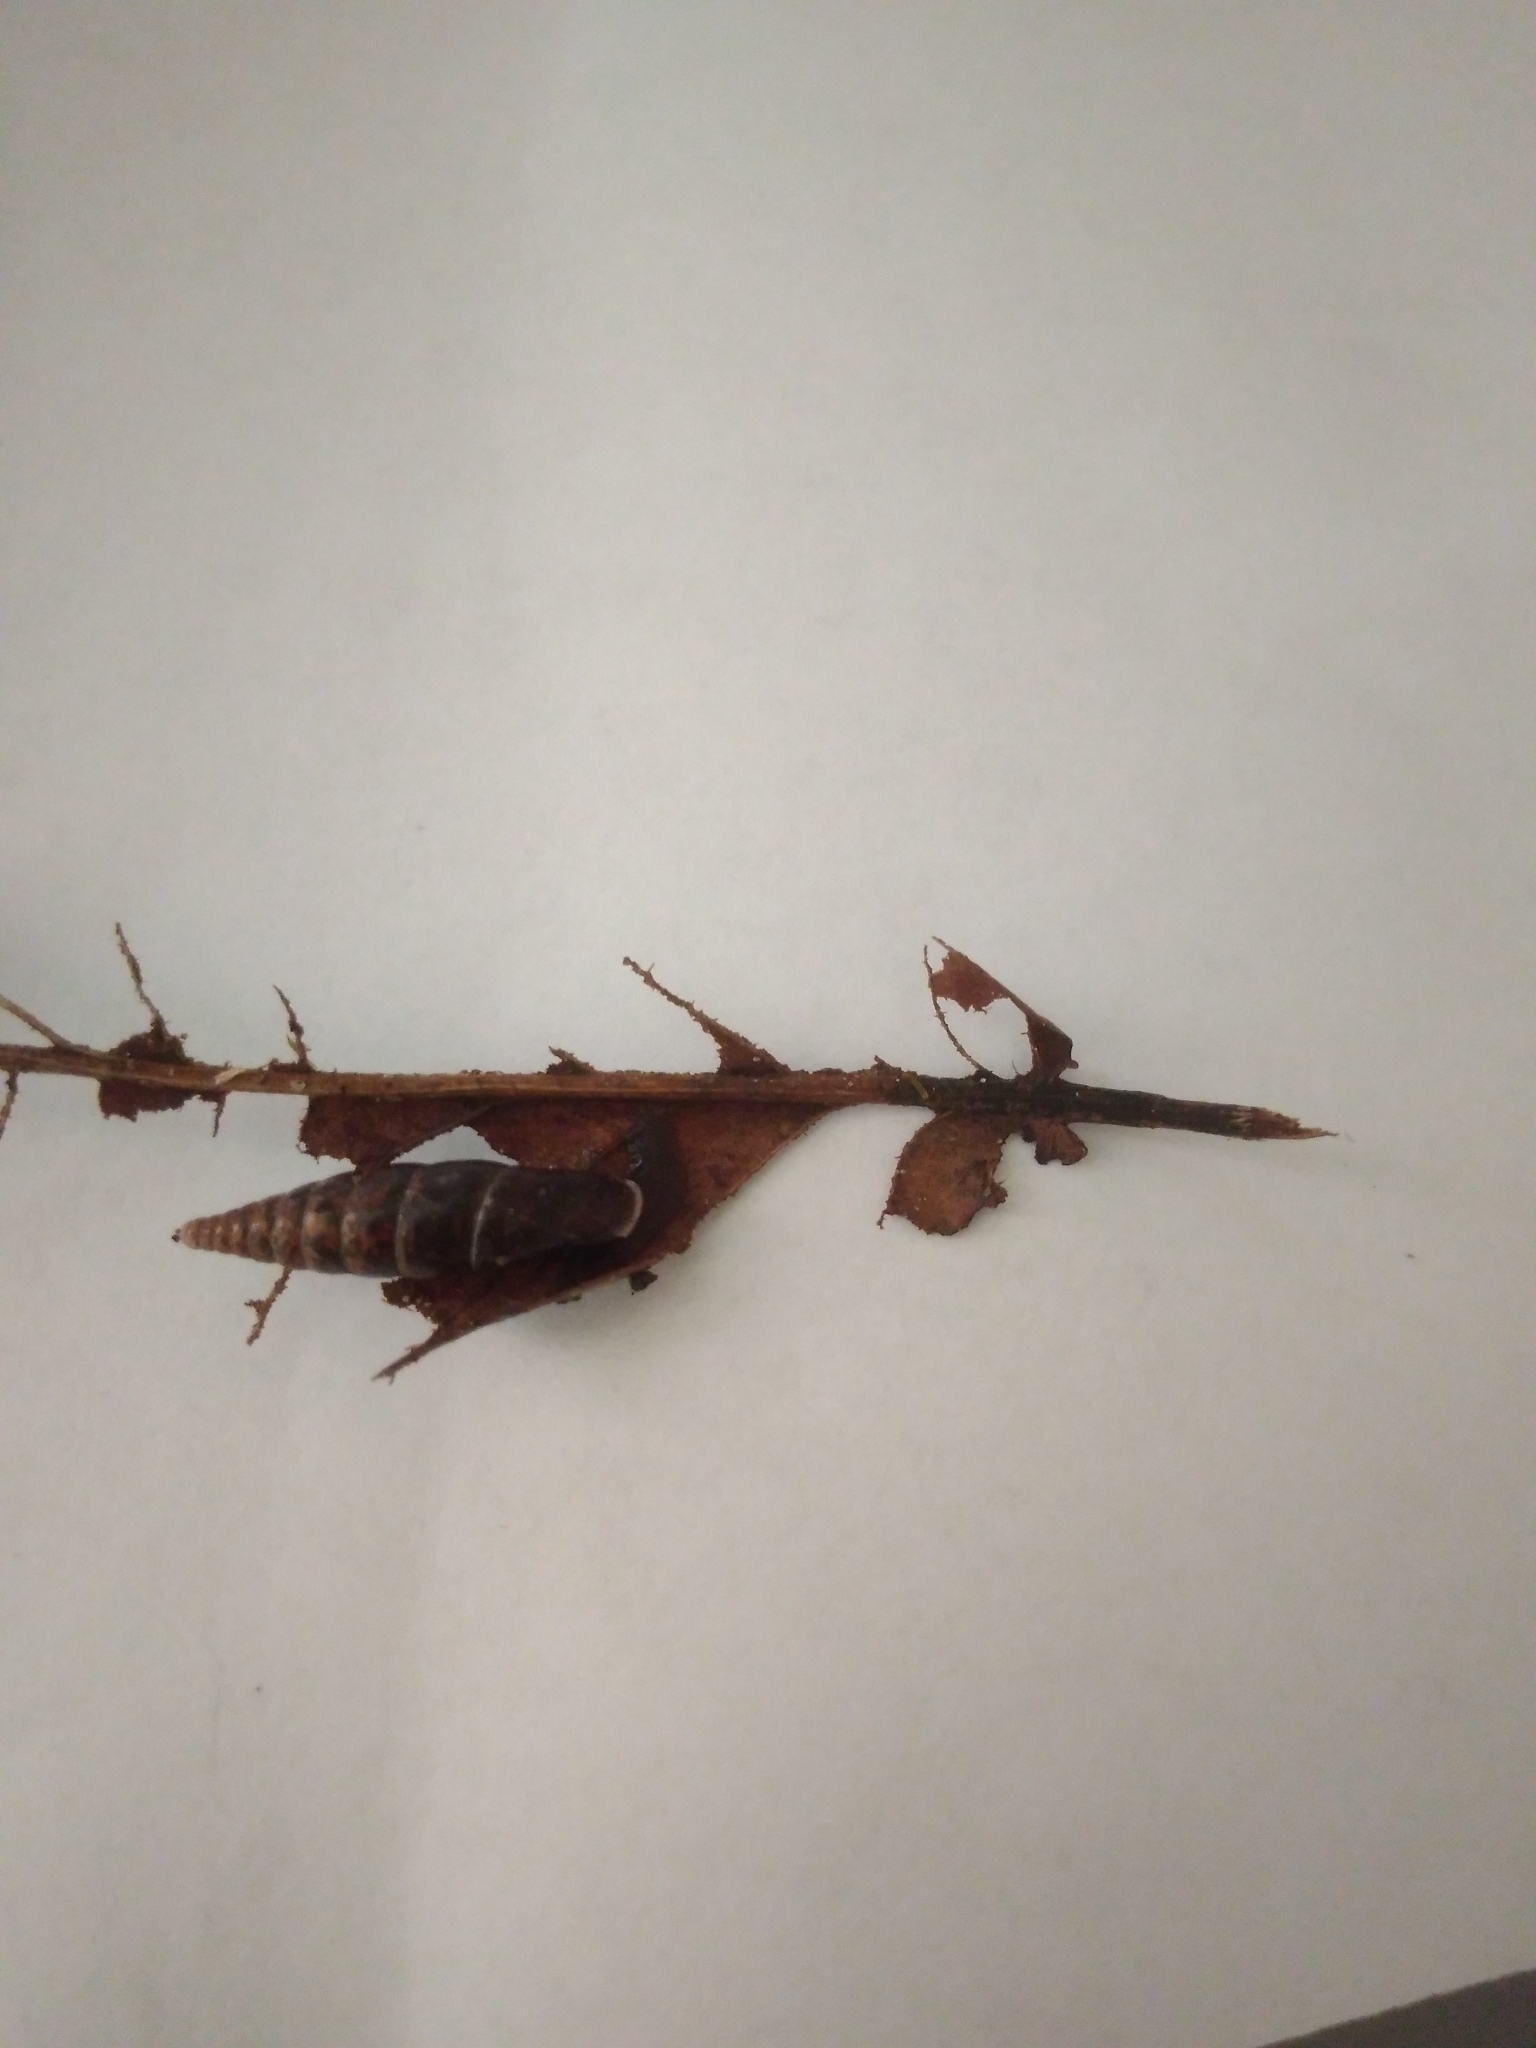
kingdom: Animalia
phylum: Mollusca
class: Gastropoda
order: Stylommatophora
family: Clausiliidae
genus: Cochlodina
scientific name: Cochlodina laminata
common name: Plaited door snail
